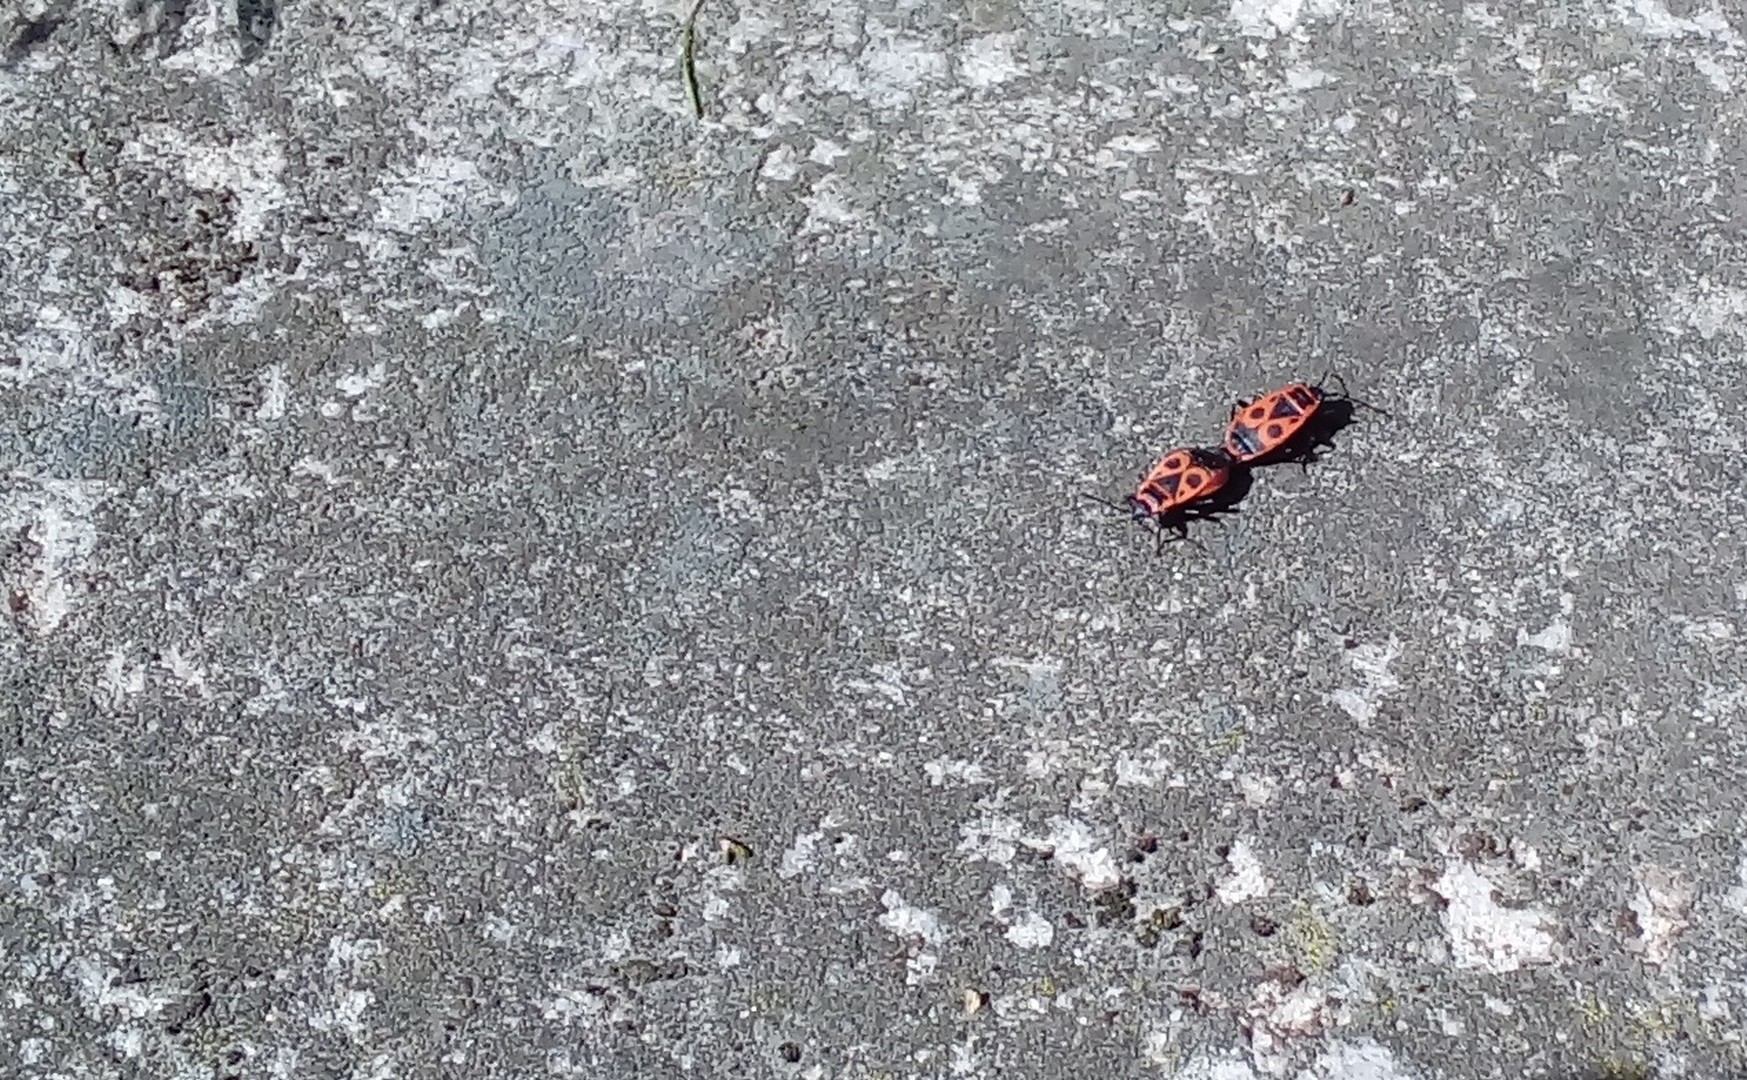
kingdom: Animalia
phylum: Arthropoda
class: Insecta
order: Hemiptera
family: Pyrrhocoridae
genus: Pyrrhocoris
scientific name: Pyrrhocoris apterus
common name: Firebug
